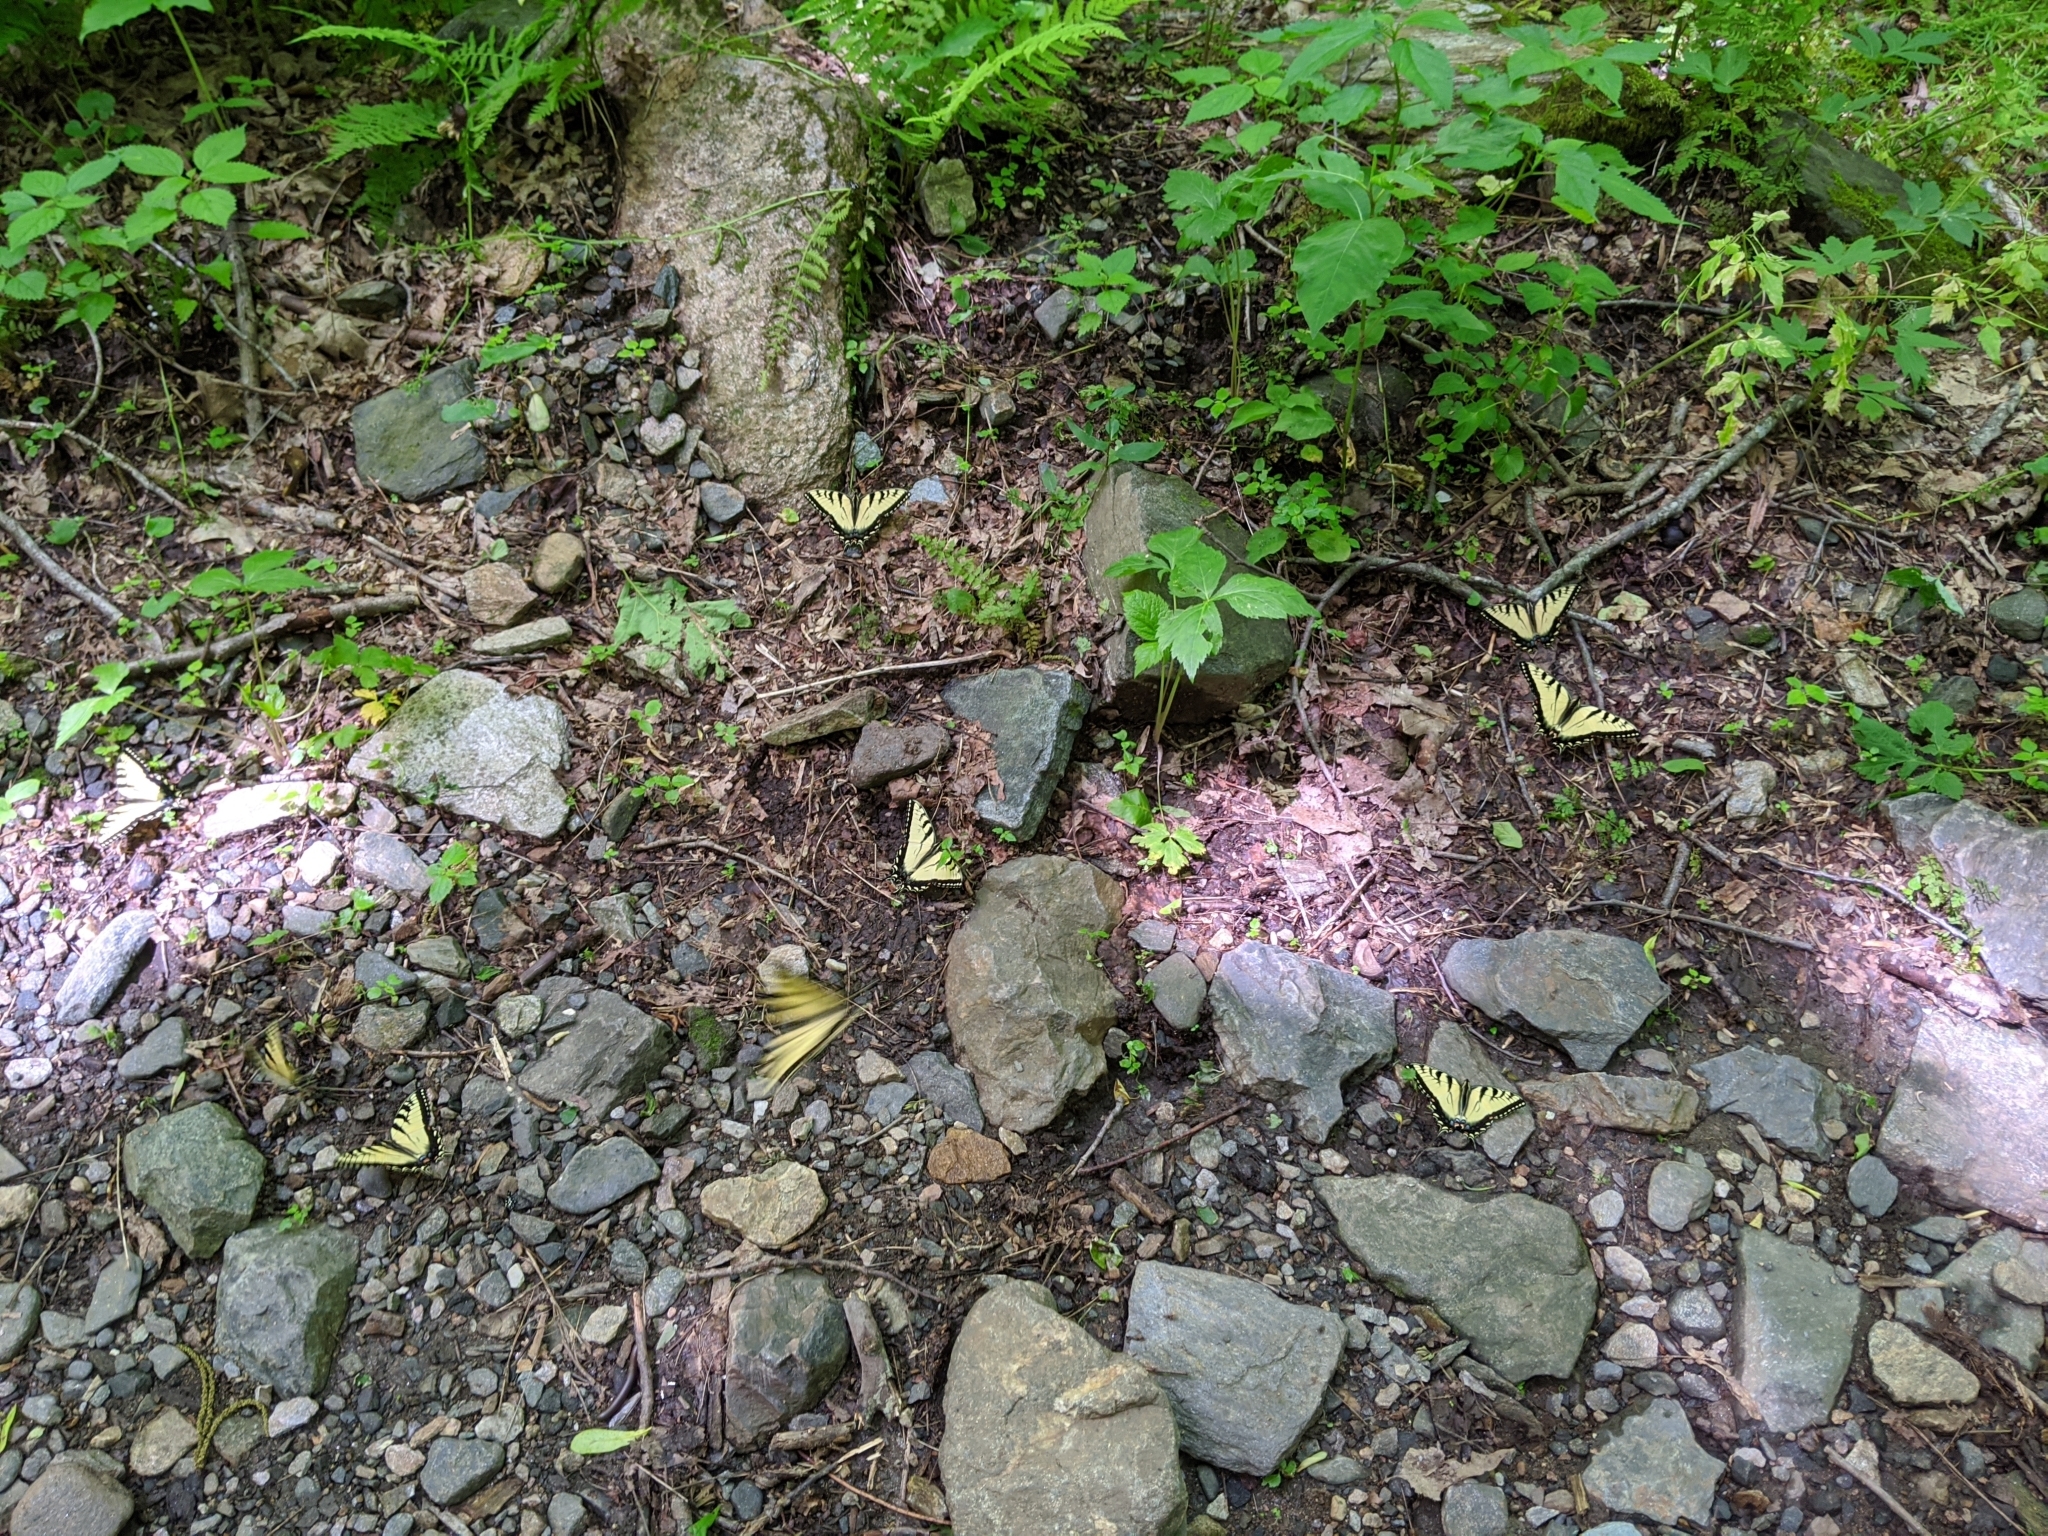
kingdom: Animalia
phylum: Arthropoda
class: Insecta
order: Lepidoptera
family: Papilionidae
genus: Papilio
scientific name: Papilio glaucus
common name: Tiger swallowtail
